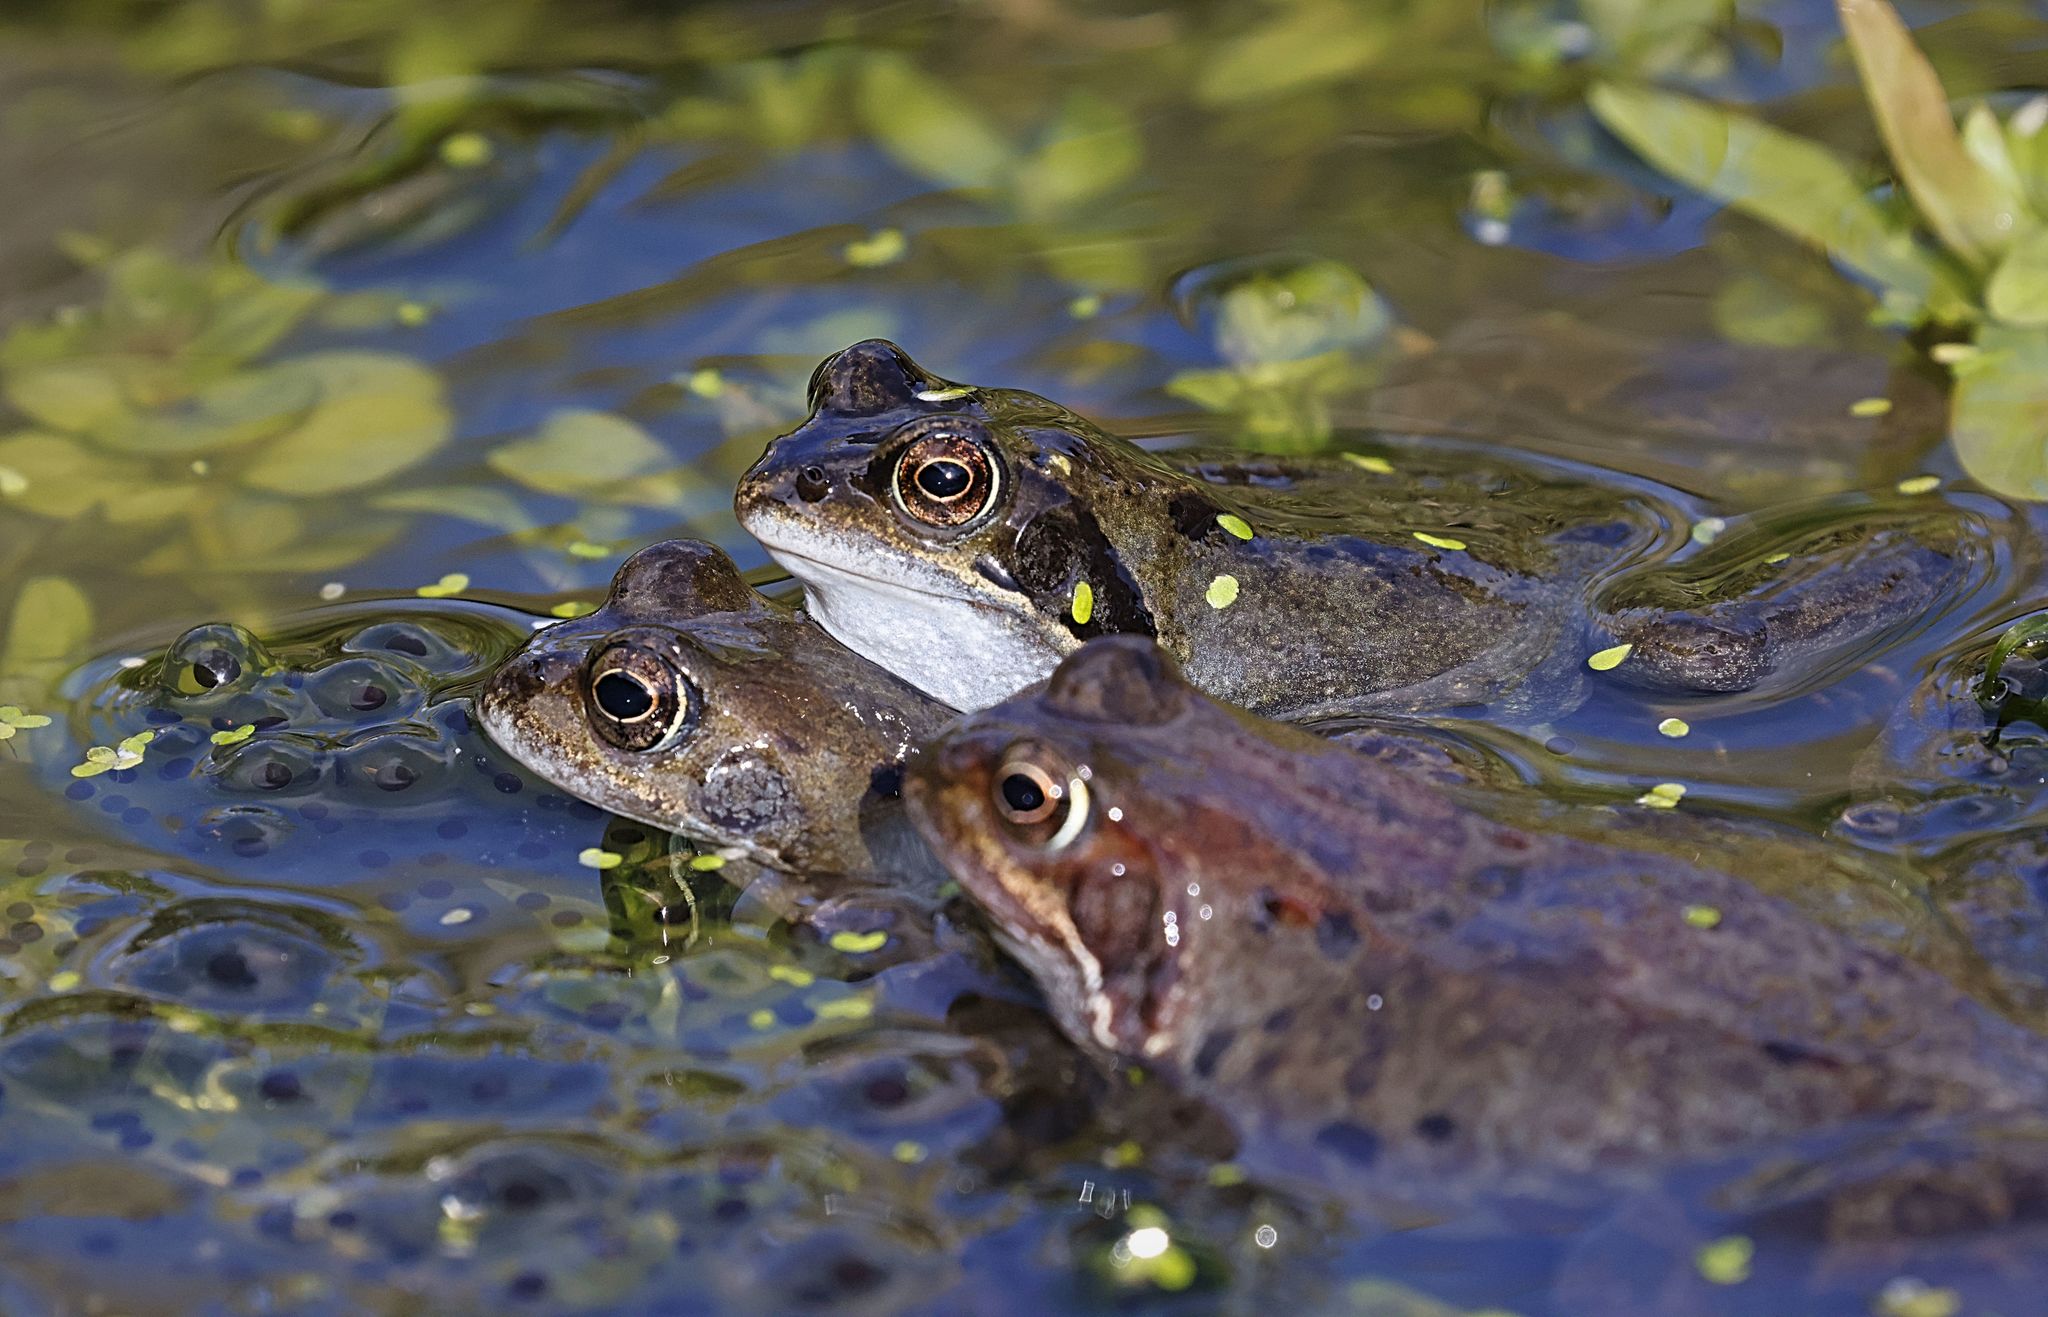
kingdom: Animalia
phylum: Chordata
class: Amphibia
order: Anura
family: Ranidae
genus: Rana
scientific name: Rana temporaria
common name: Common frog
